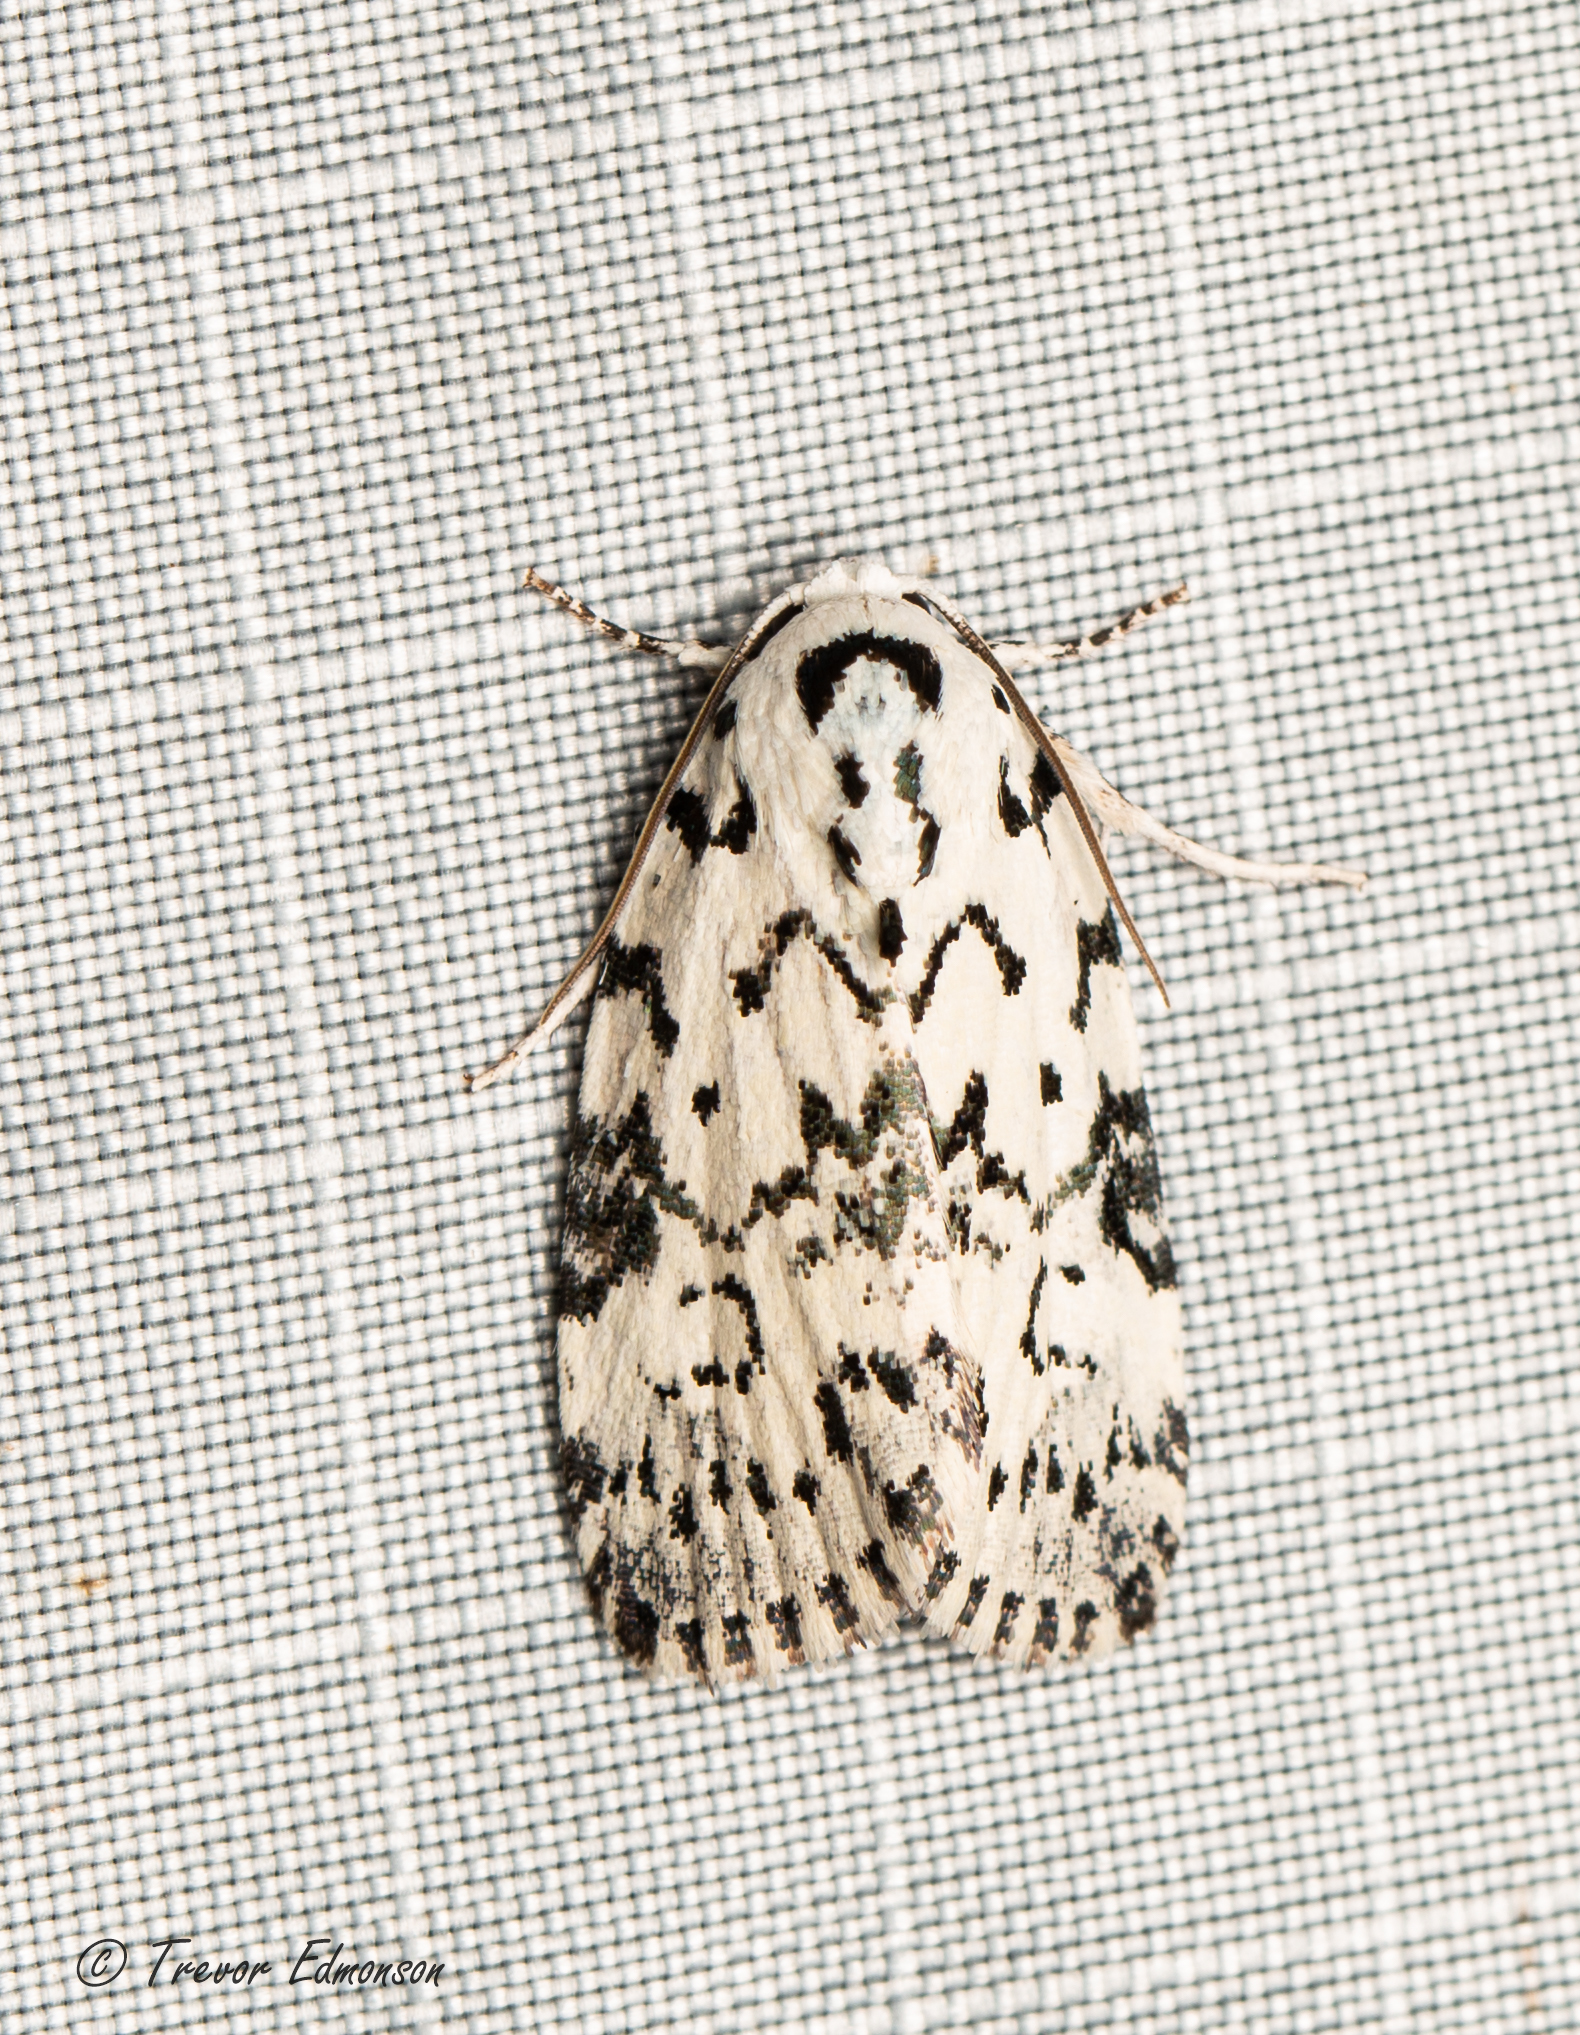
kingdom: Animalia
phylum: Arthropoda
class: Insecta
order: Lepidoptera
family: Noctuidae
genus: Polygrammate
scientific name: Polygrammate hebraeicum
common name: Hebrew moth
